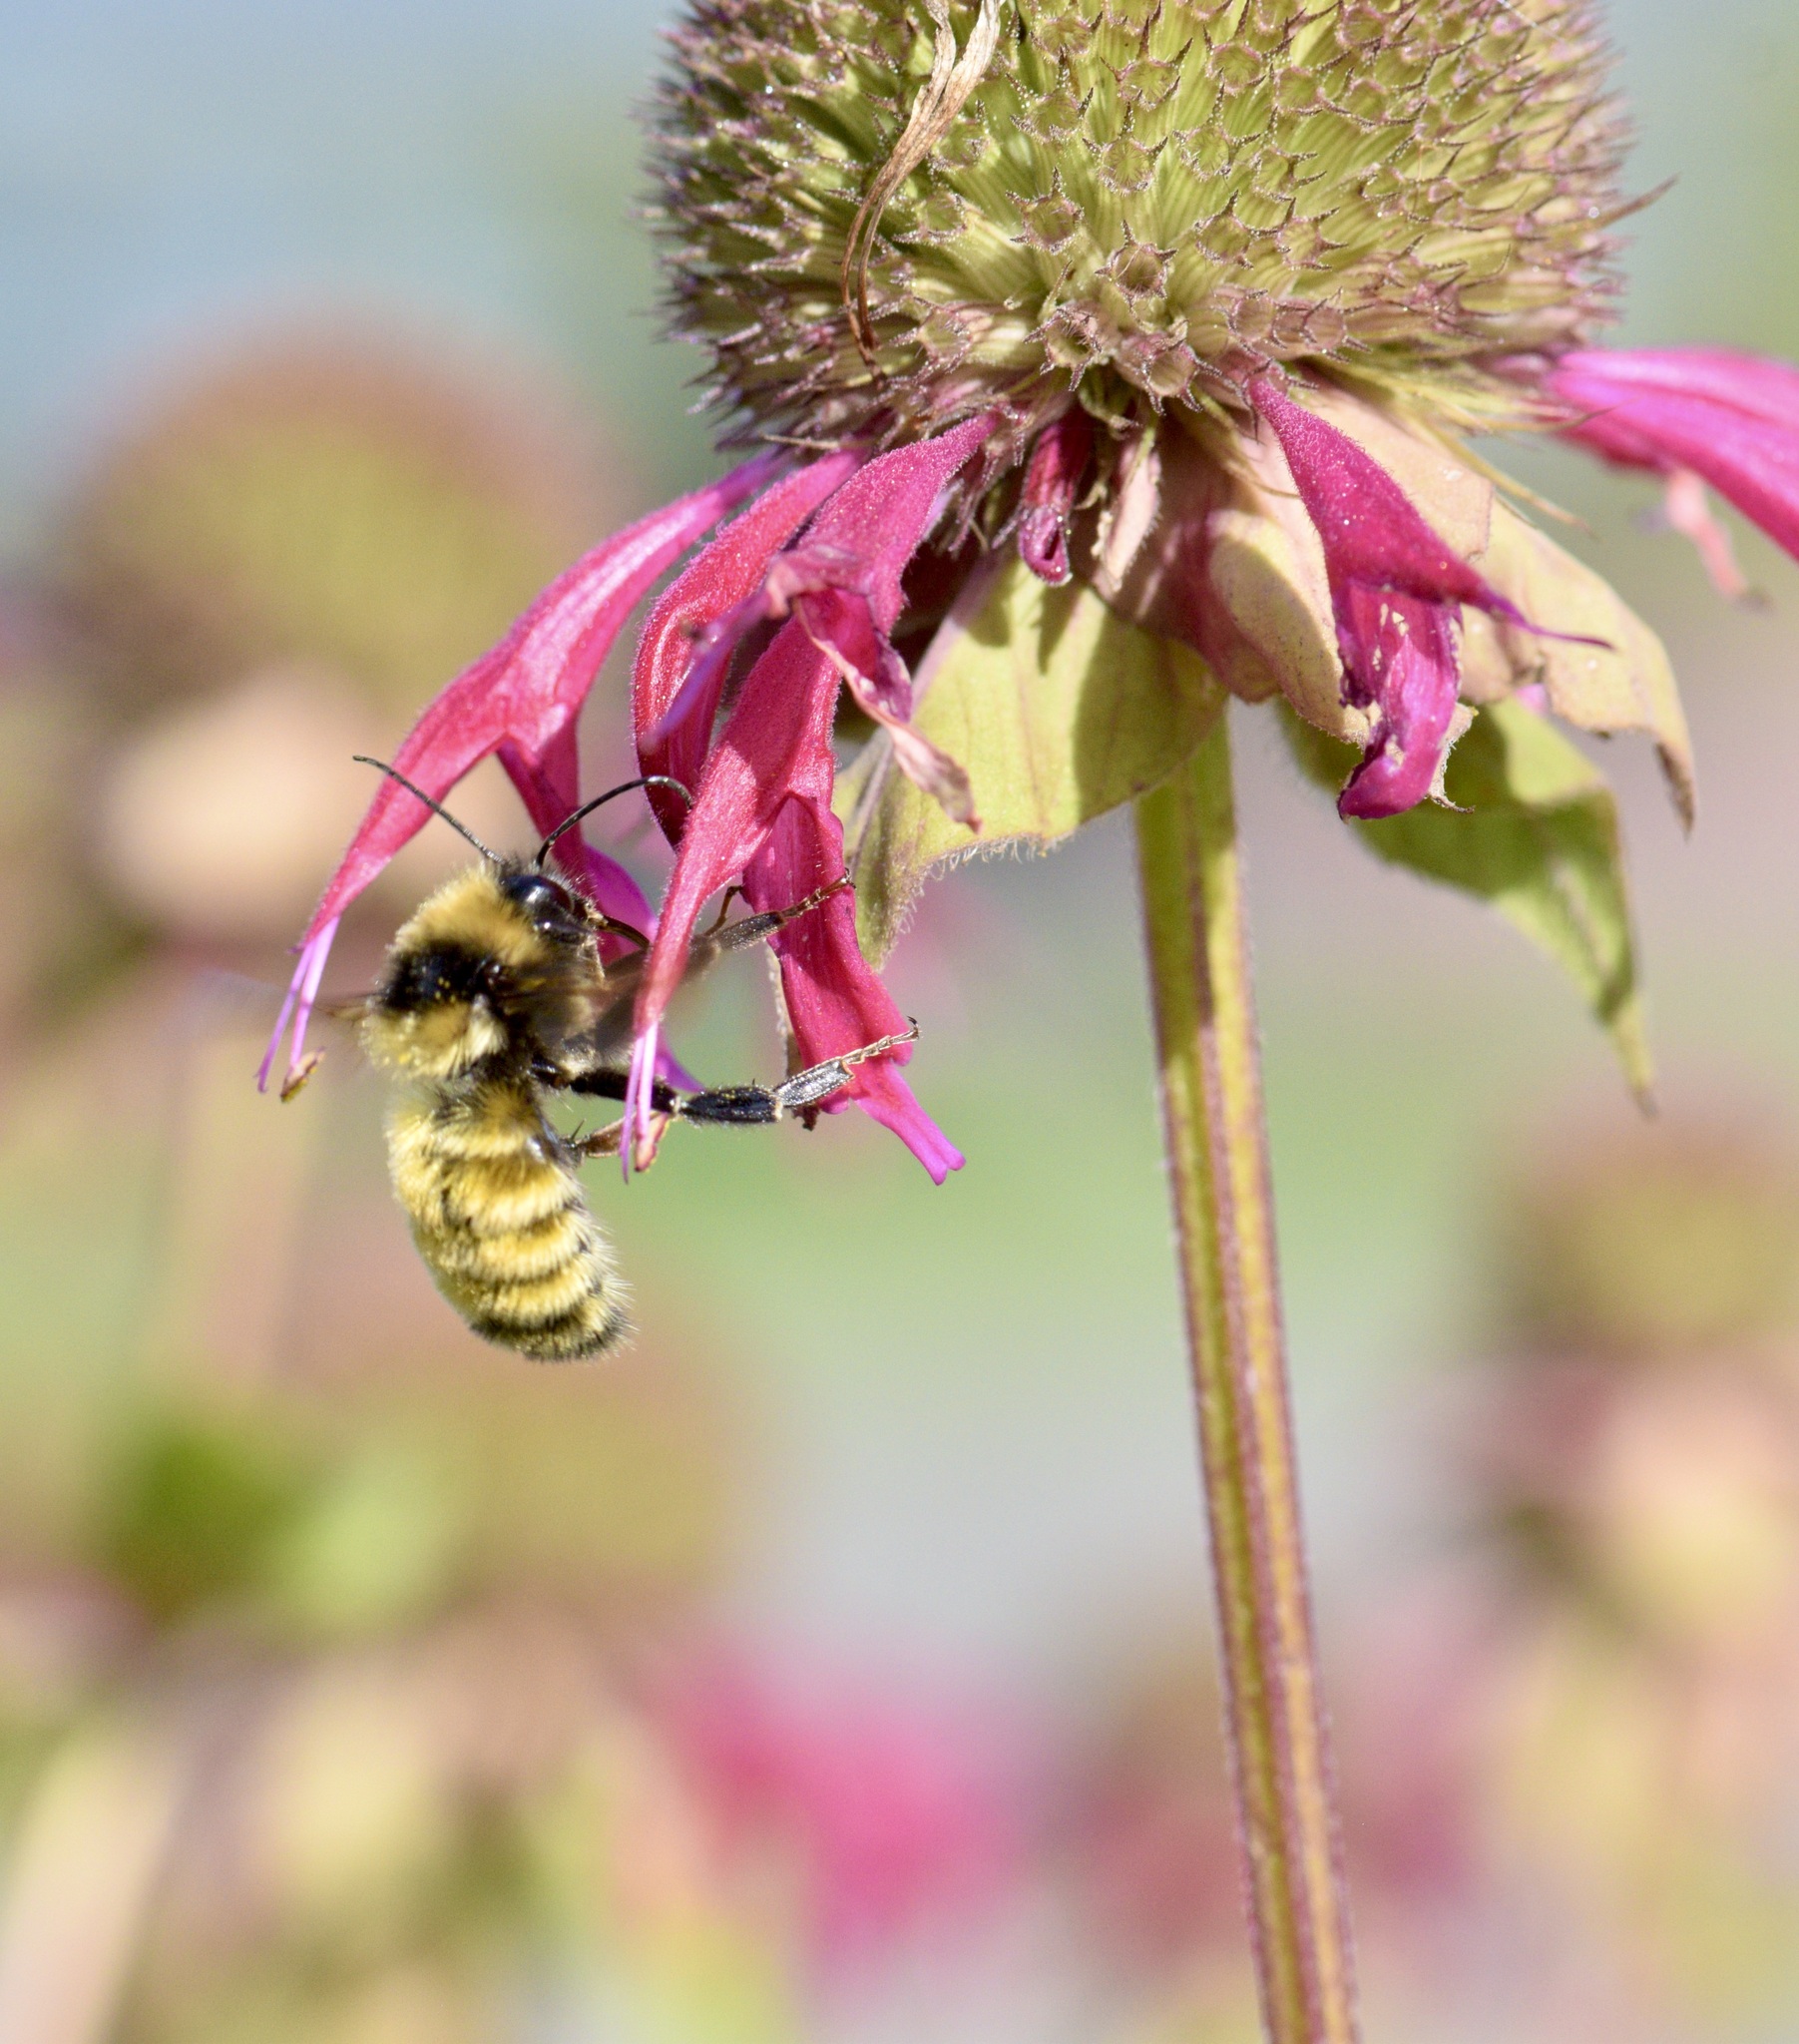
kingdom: Animalia
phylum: Arthropoda
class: Insecta
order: Hymenoptera
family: Apidae
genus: Bombus
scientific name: Bombus borealis
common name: Northern amber bumble bee
